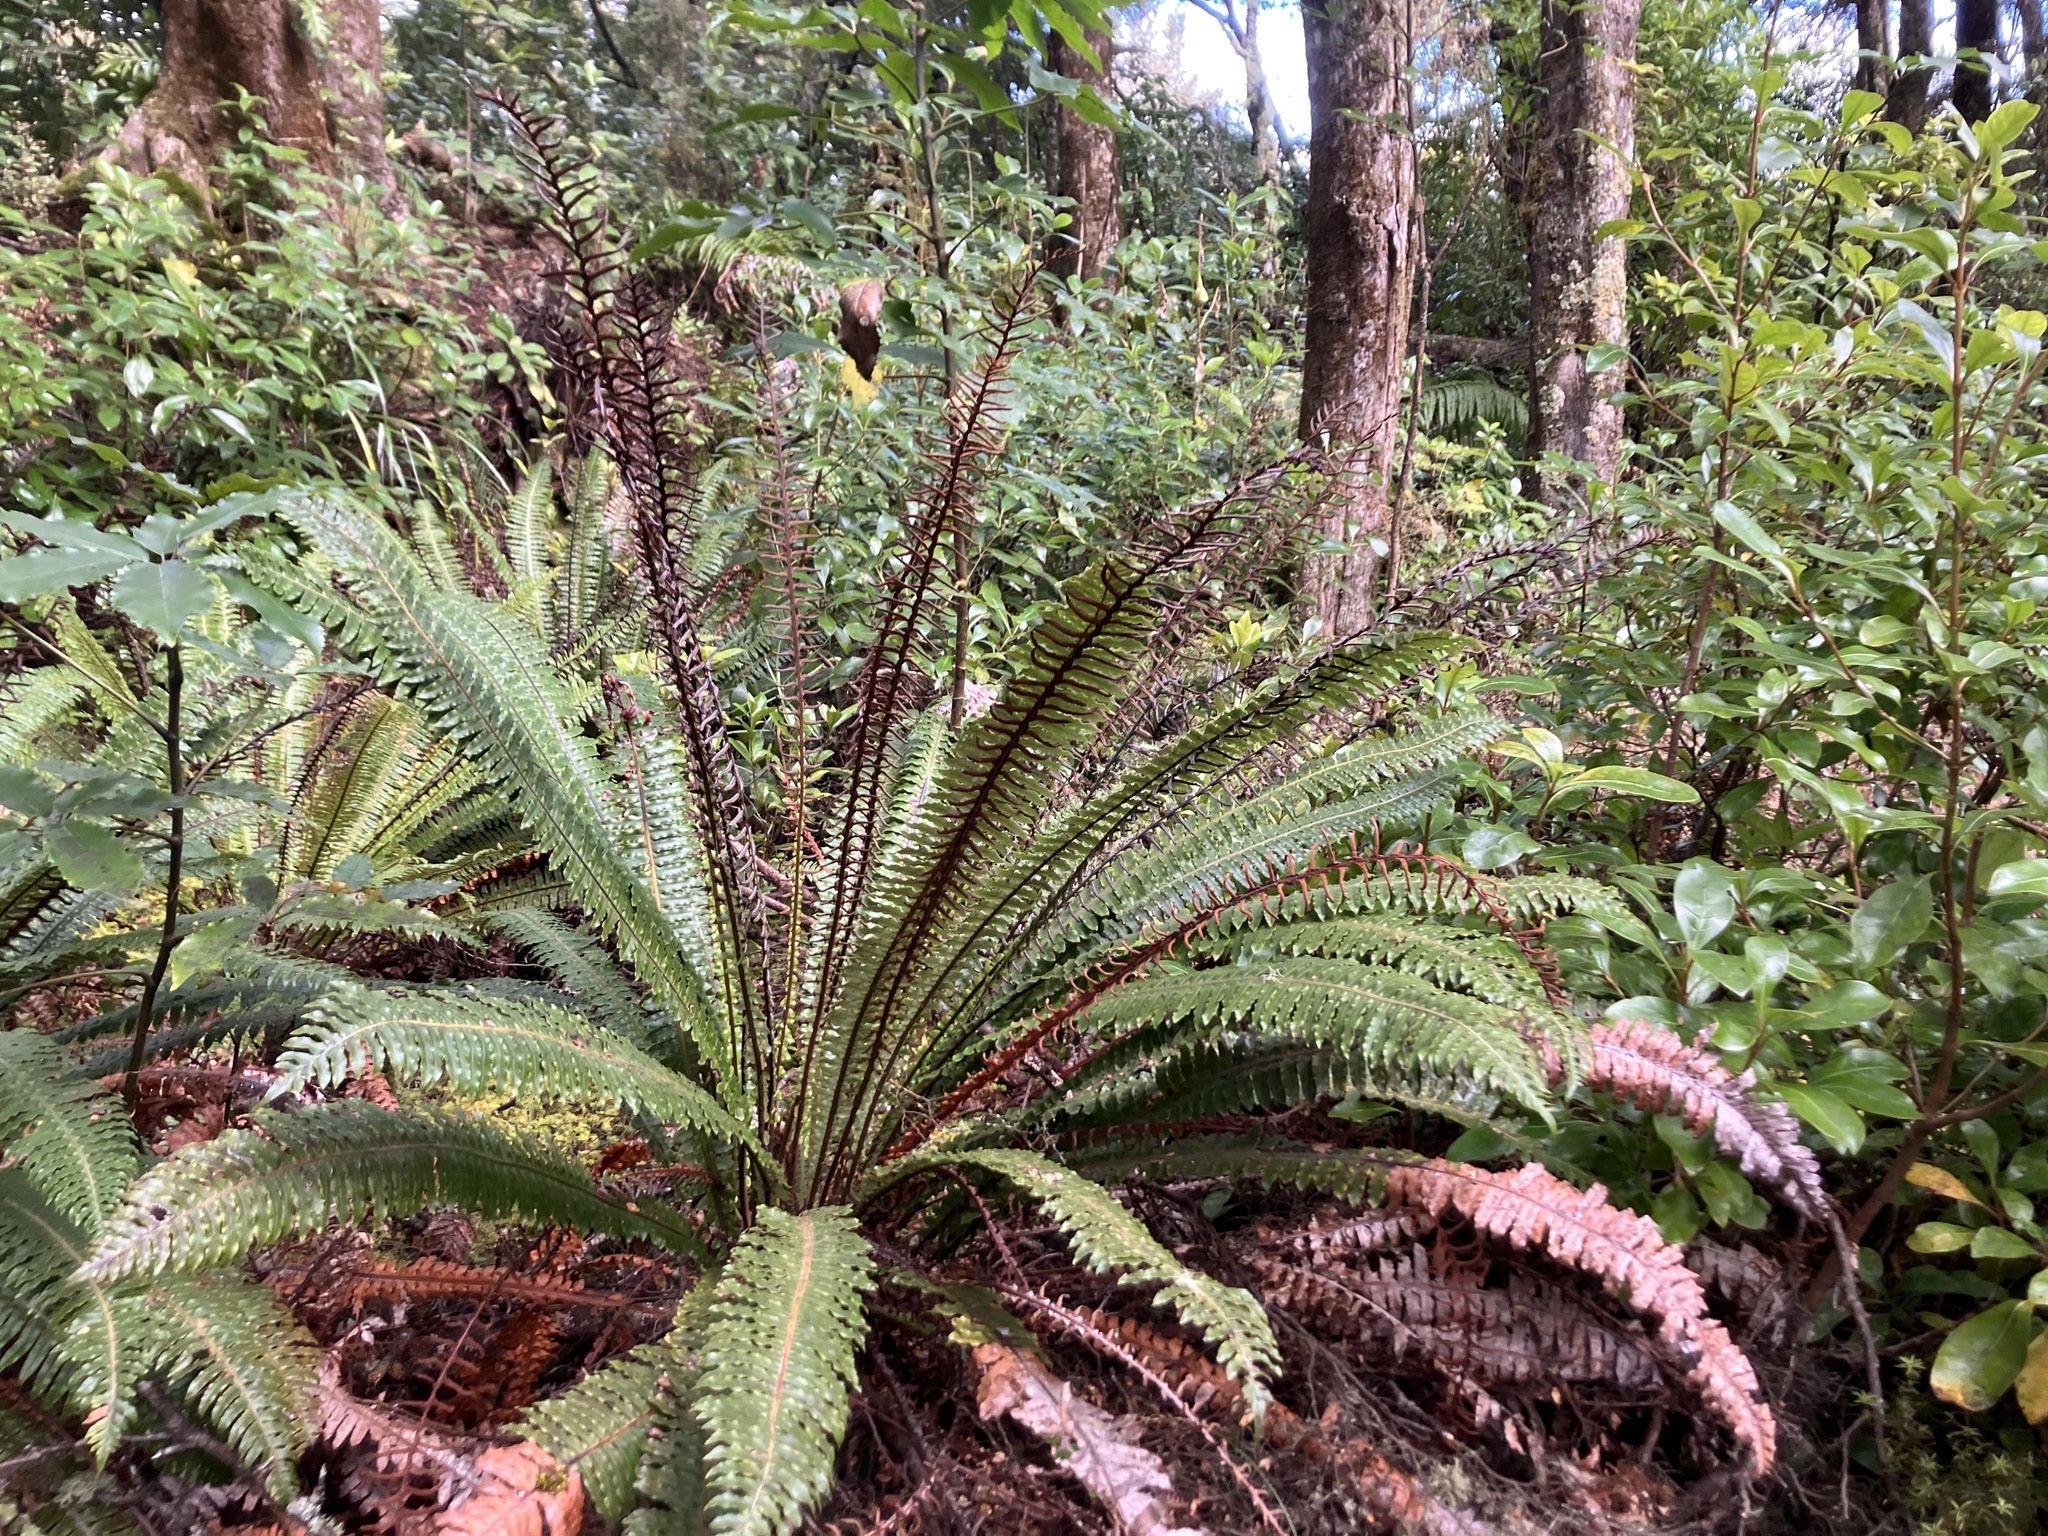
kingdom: Plantae
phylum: Tracheophyta
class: Polypodiopsida
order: Polypodiales
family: Blechnaceae
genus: Lomaria
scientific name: Lomaria discolor
